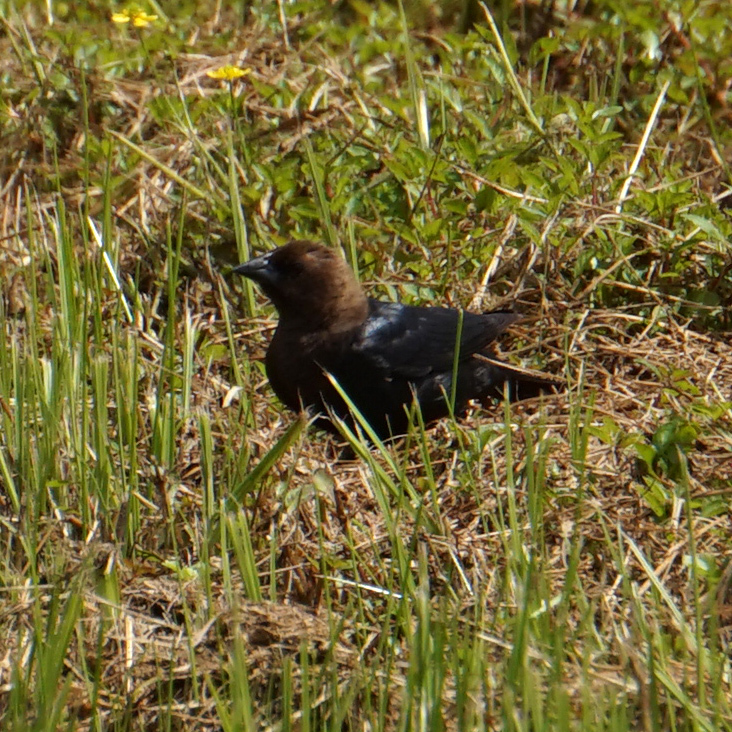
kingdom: Animalia
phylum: Chordata
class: Aves
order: Passeriformes
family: Icteridae
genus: Molothrus
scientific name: Molothrus ater
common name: Brown-headed cowbird
